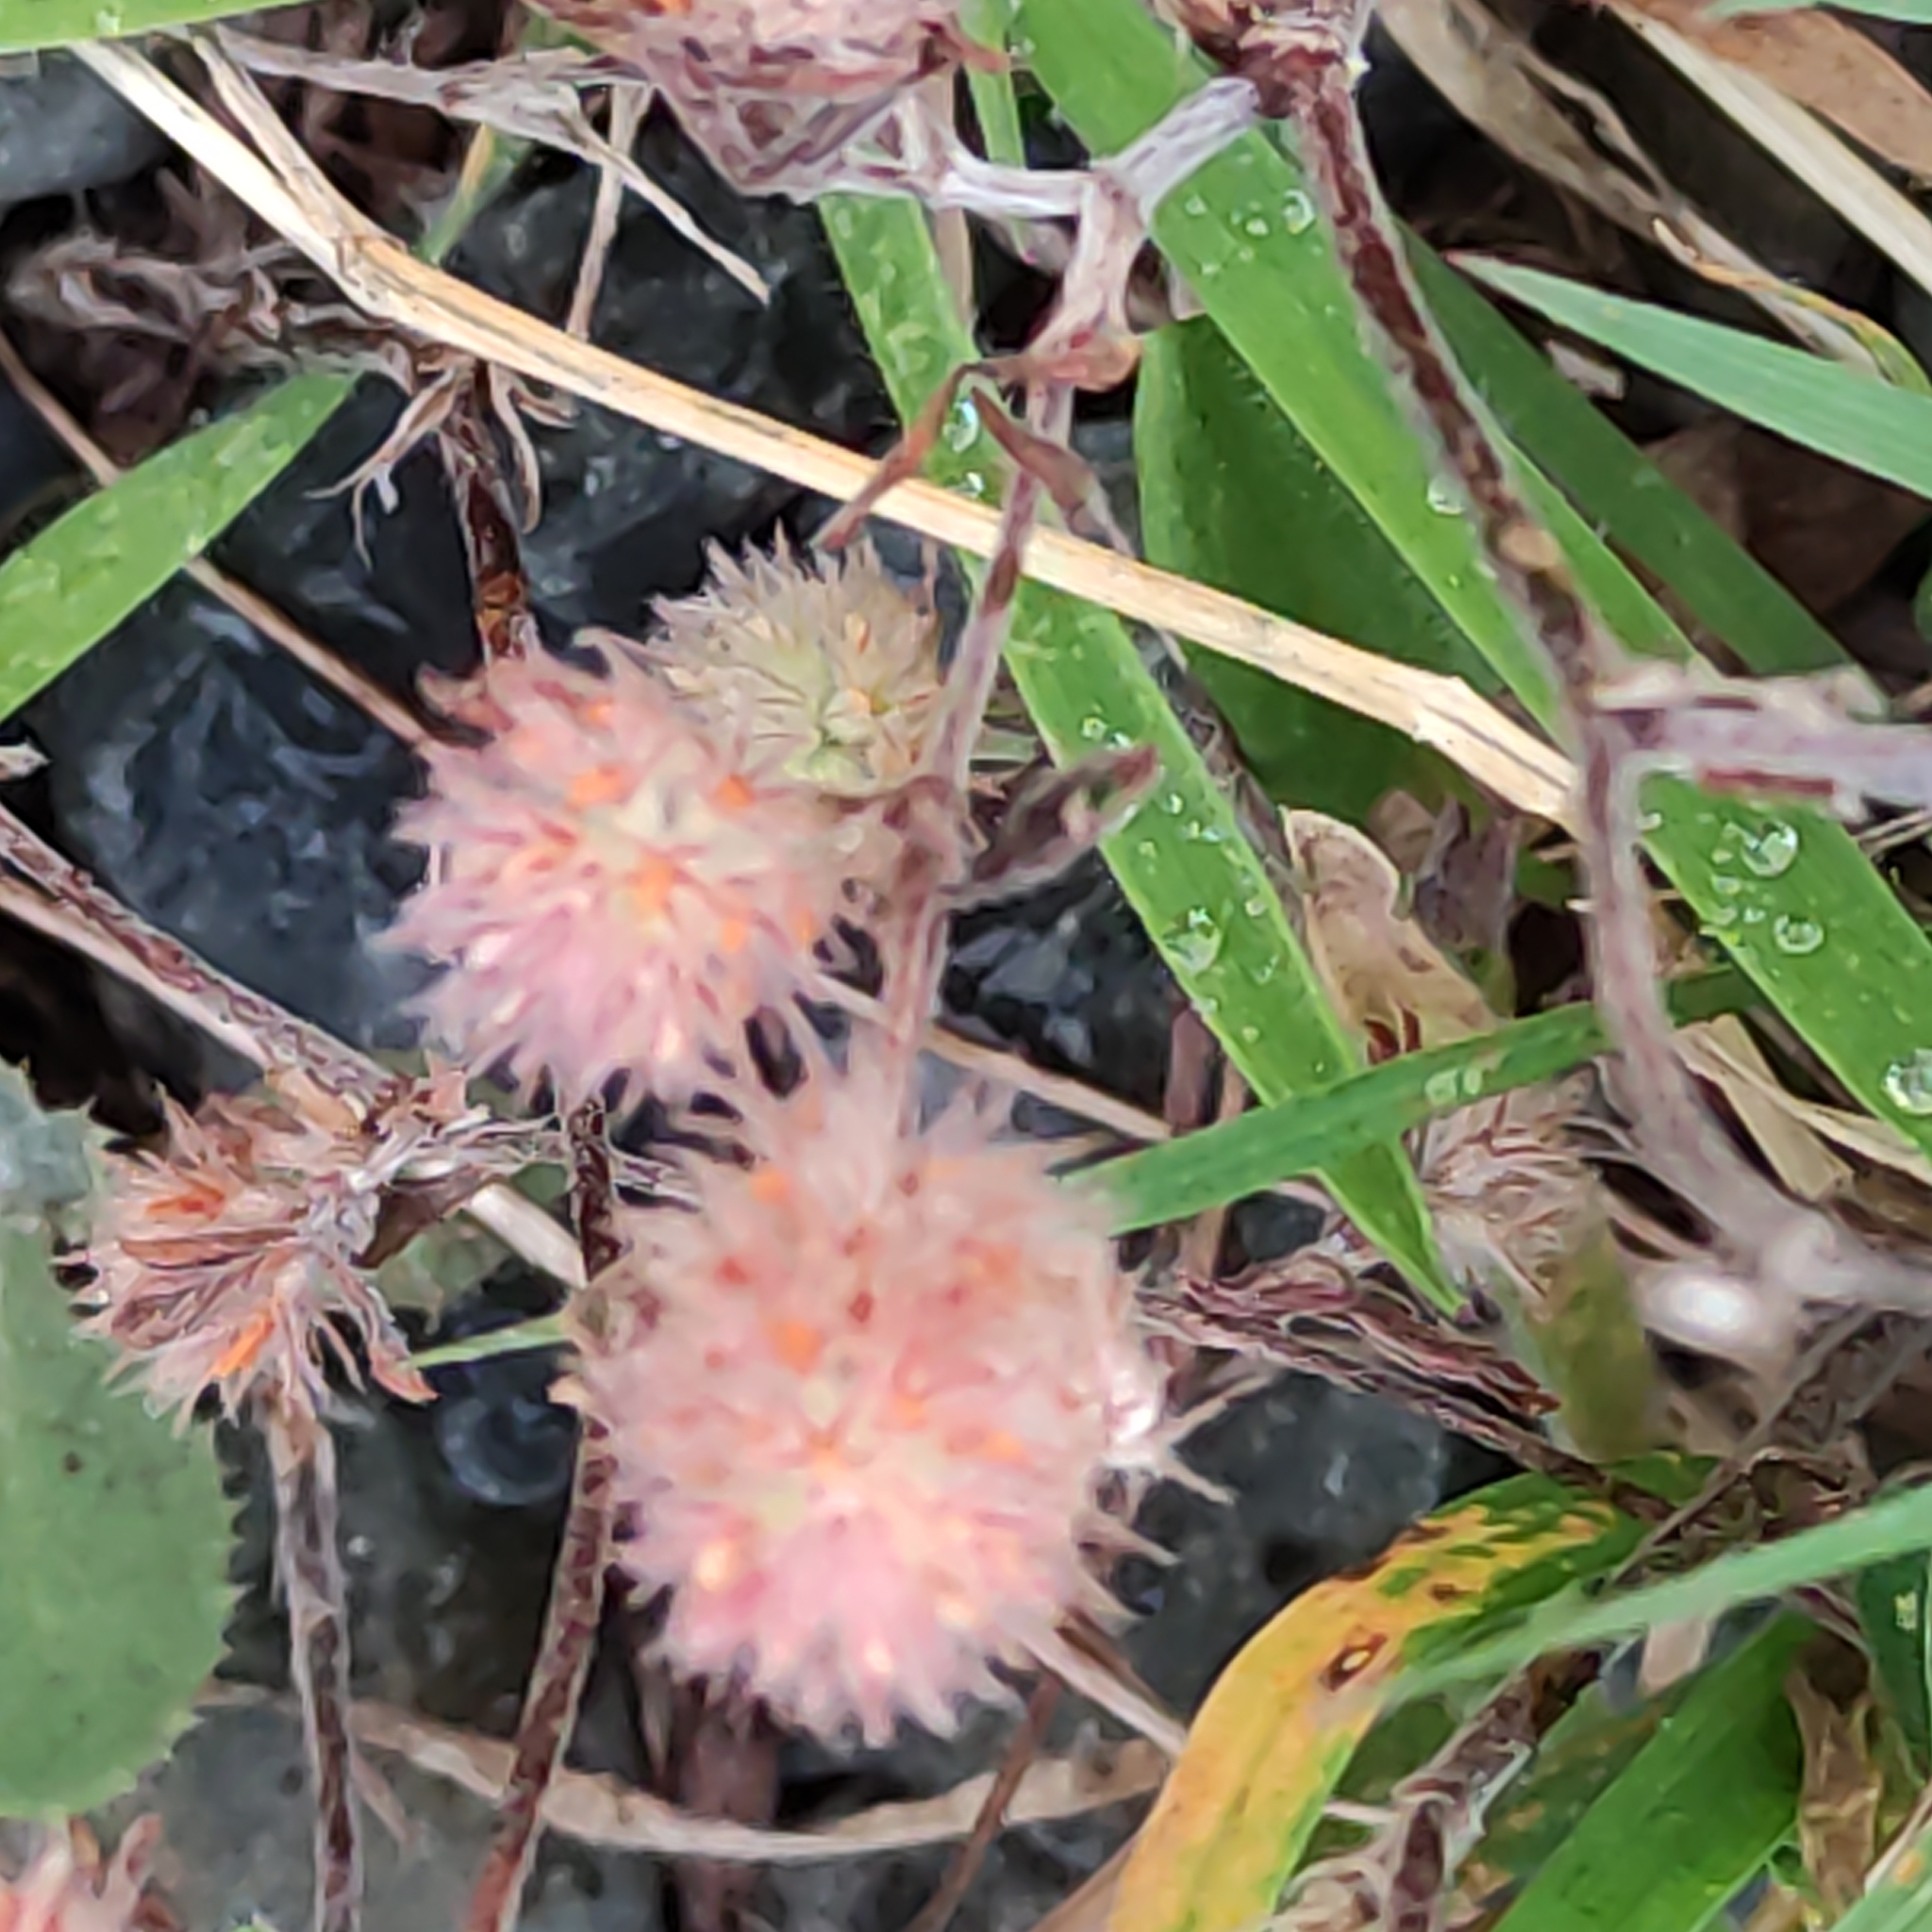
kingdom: Plantae
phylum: Tracheophyta
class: Magnoliopsida
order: Fabales
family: Fabaceae
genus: Trifolium
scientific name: Trifolium arvense
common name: Hare's-foot clover
